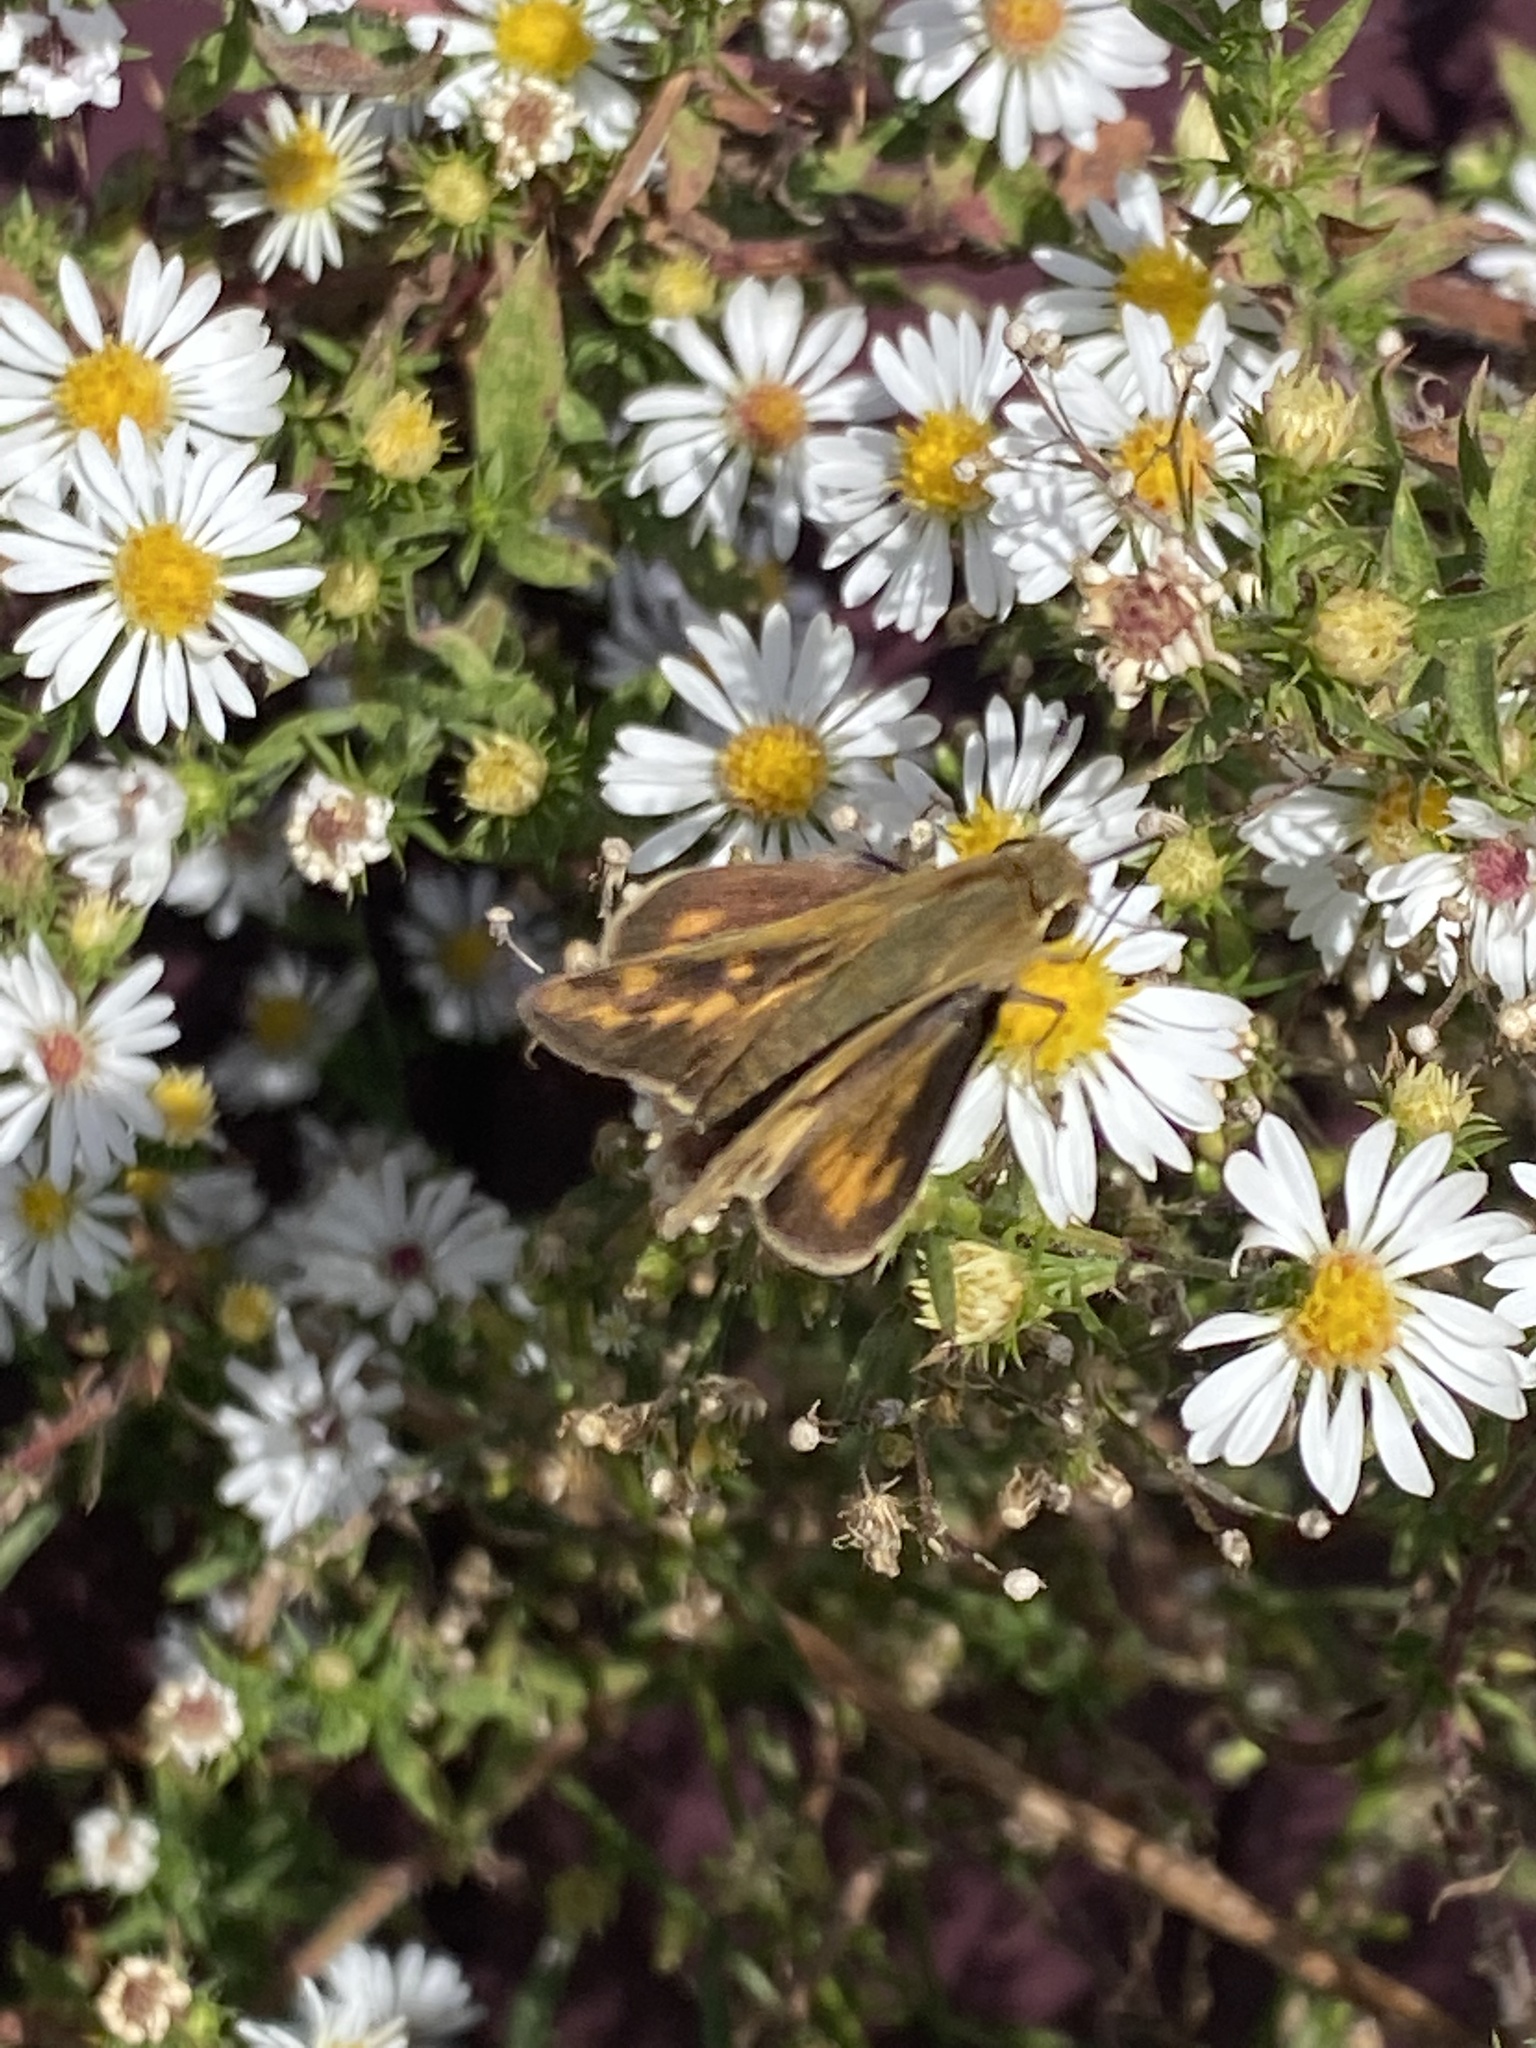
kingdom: Animalia
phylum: Arthropoda
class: Insecta
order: Lepidoptera
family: Hesperiidae
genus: Hylephila
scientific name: Hylephila phyleus
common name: Fiery skipper
